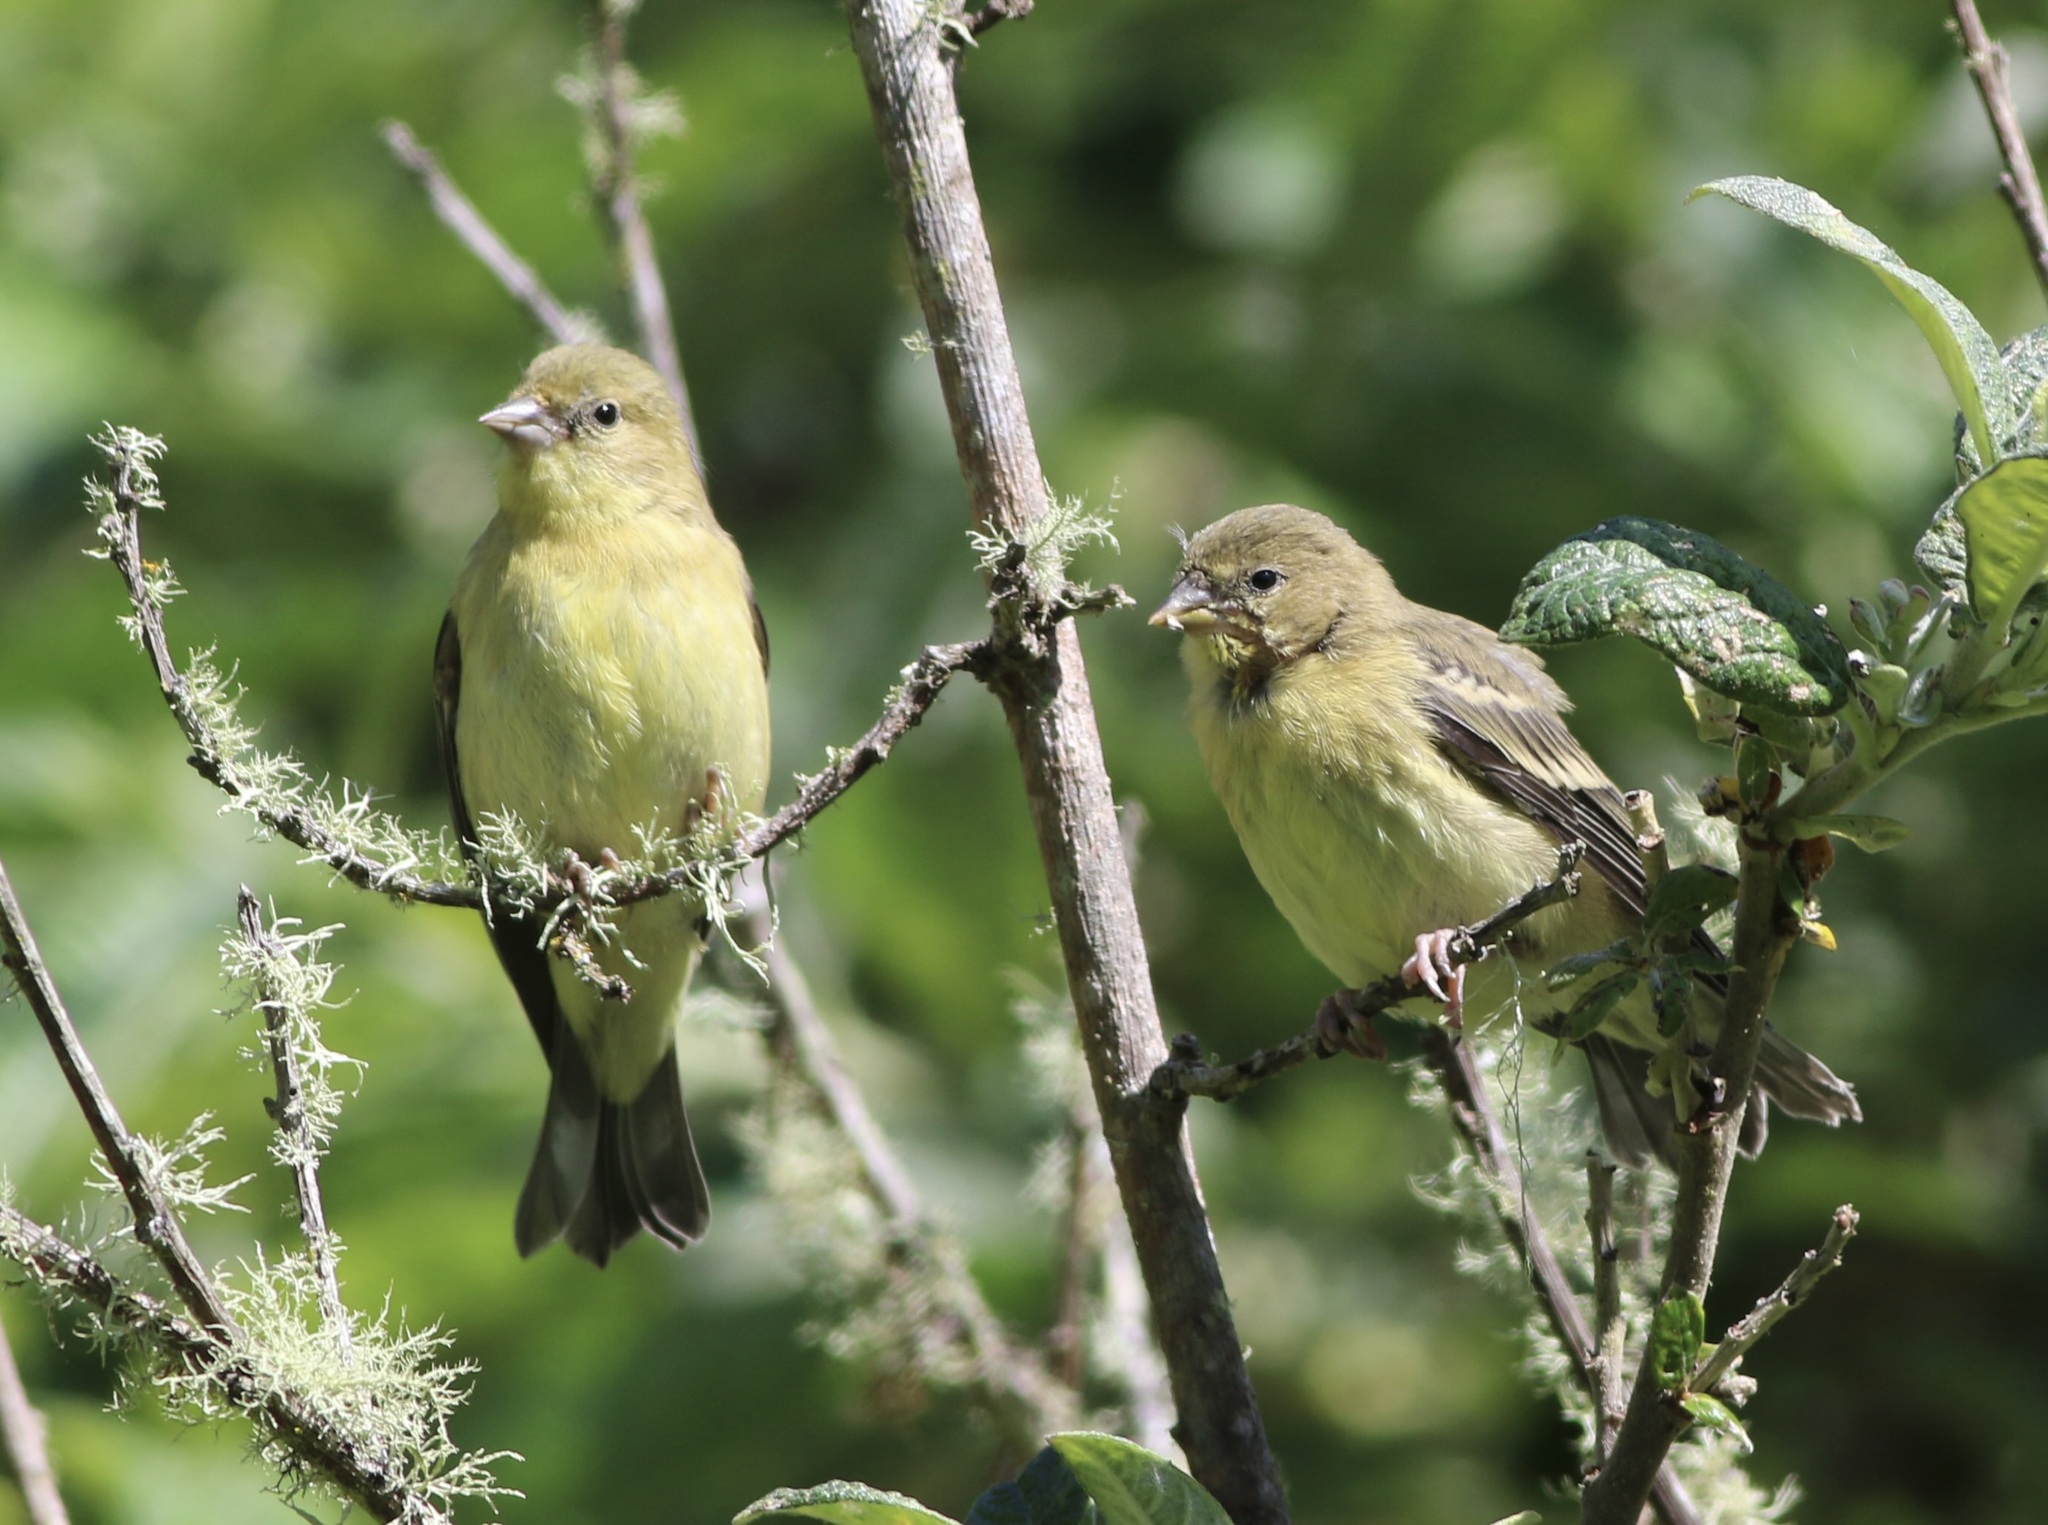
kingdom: Animalia
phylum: Chordata
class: Aves
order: Passeriformes
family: Fringillidae
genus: Spinus
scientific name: Spinus psaltria
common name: Lesser goldfinch
